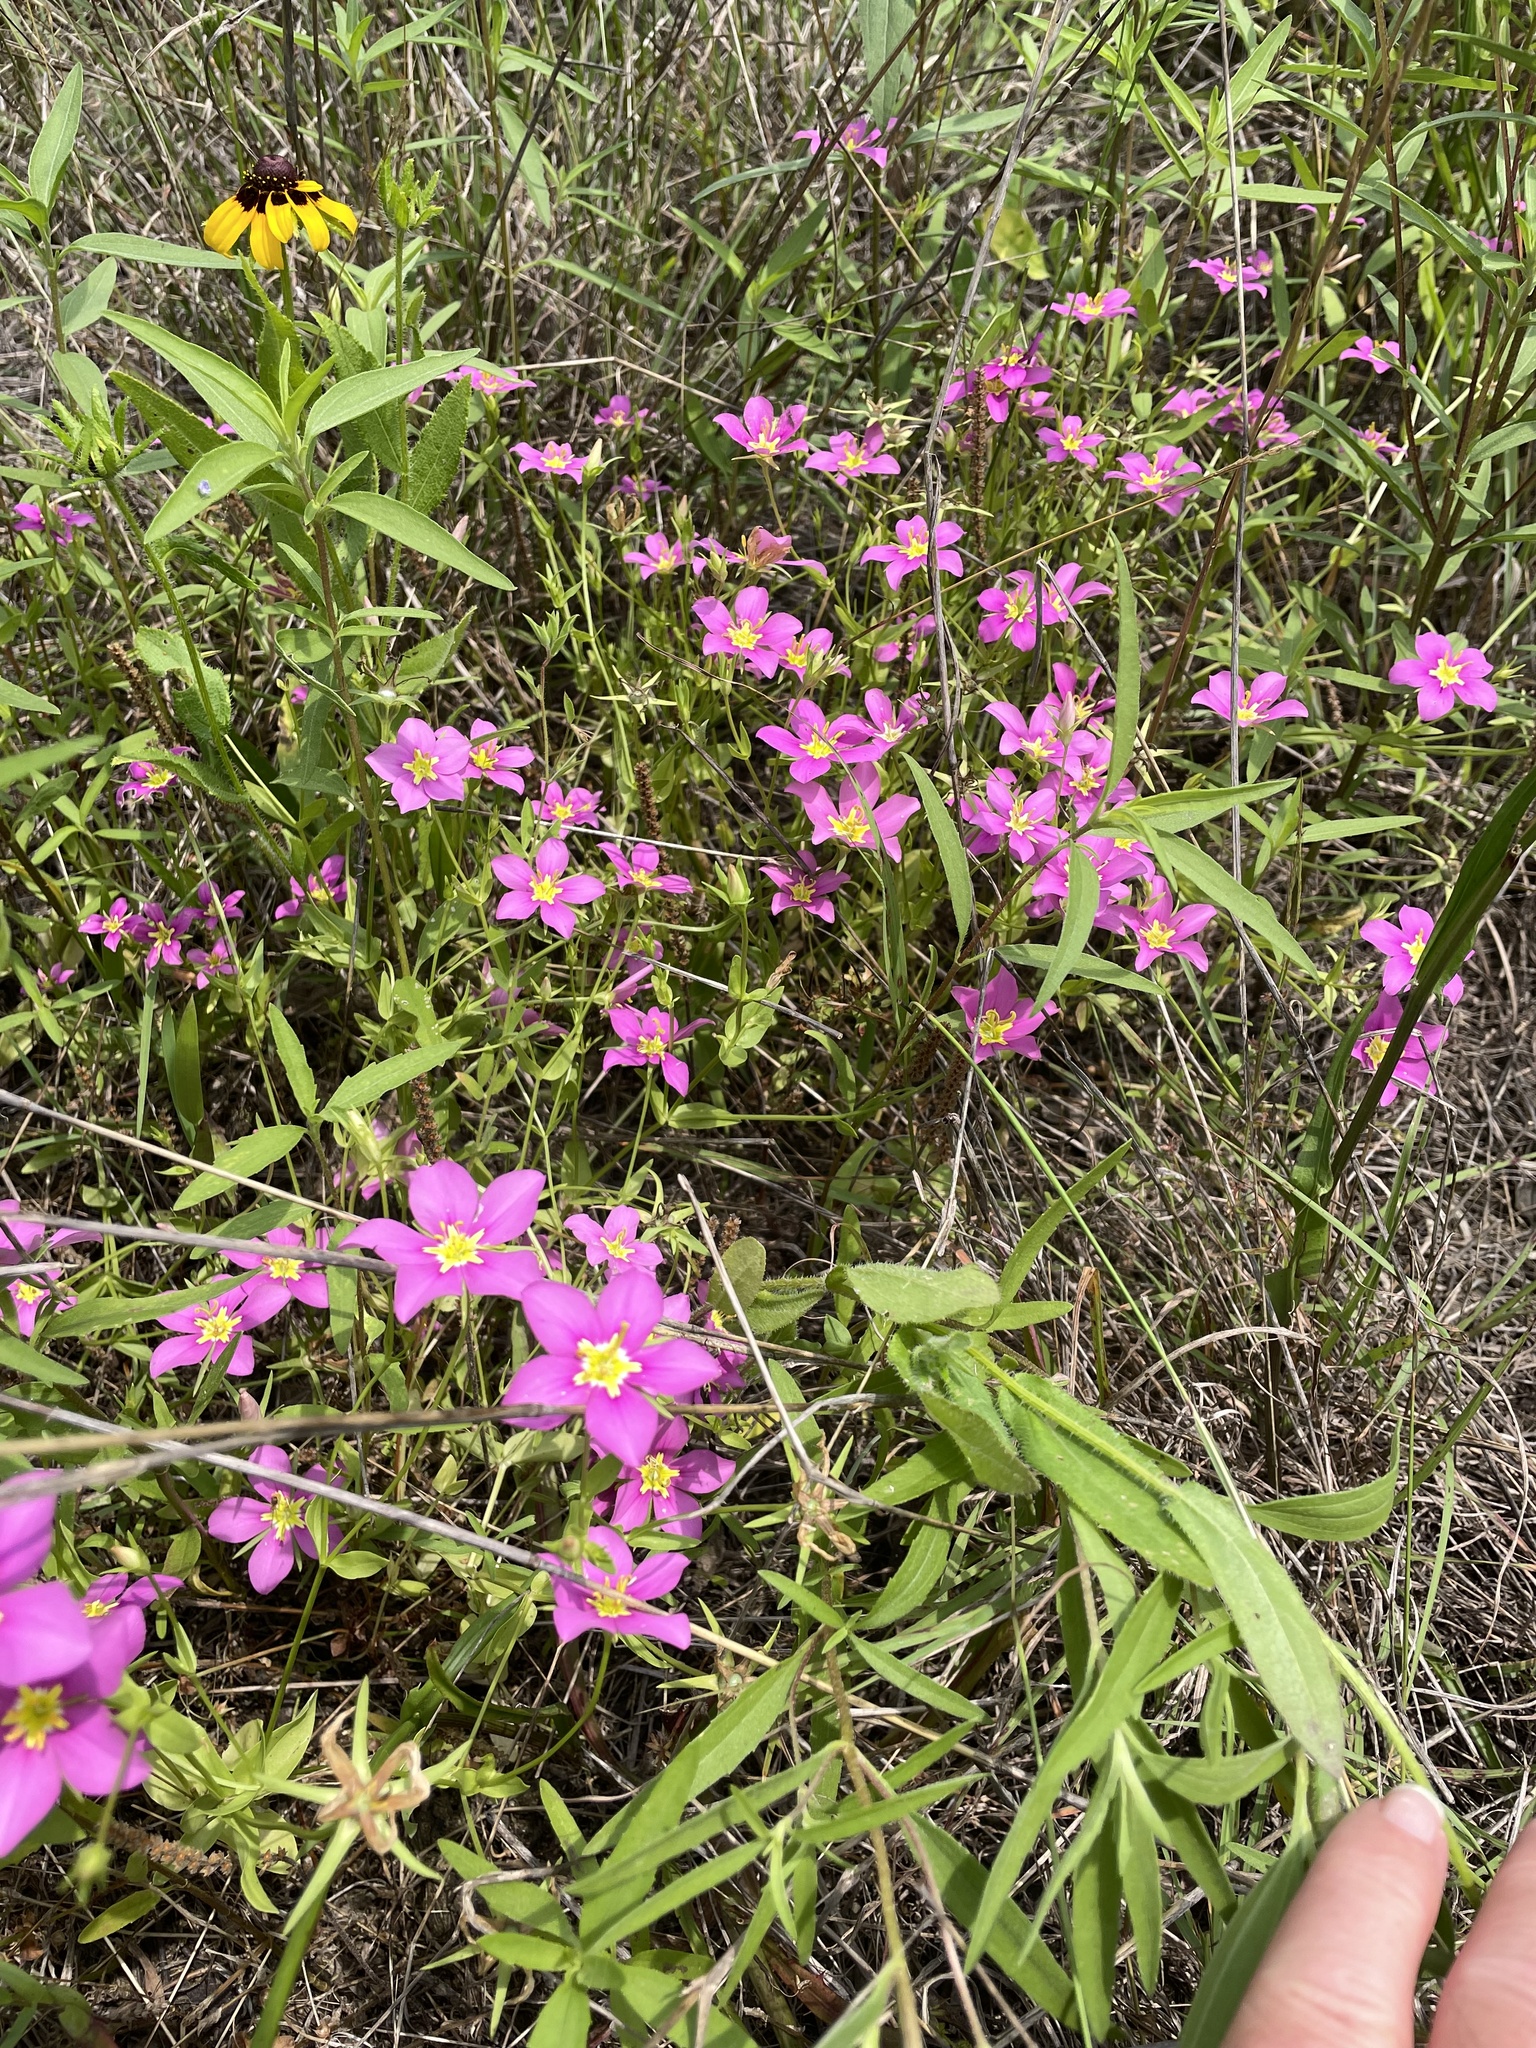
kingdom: Plantae
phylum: Tracheophyta
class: Magnoliopsida
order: Gentianales
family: Gentianaceae
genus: Sabatia
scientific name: Sabatia campestris
